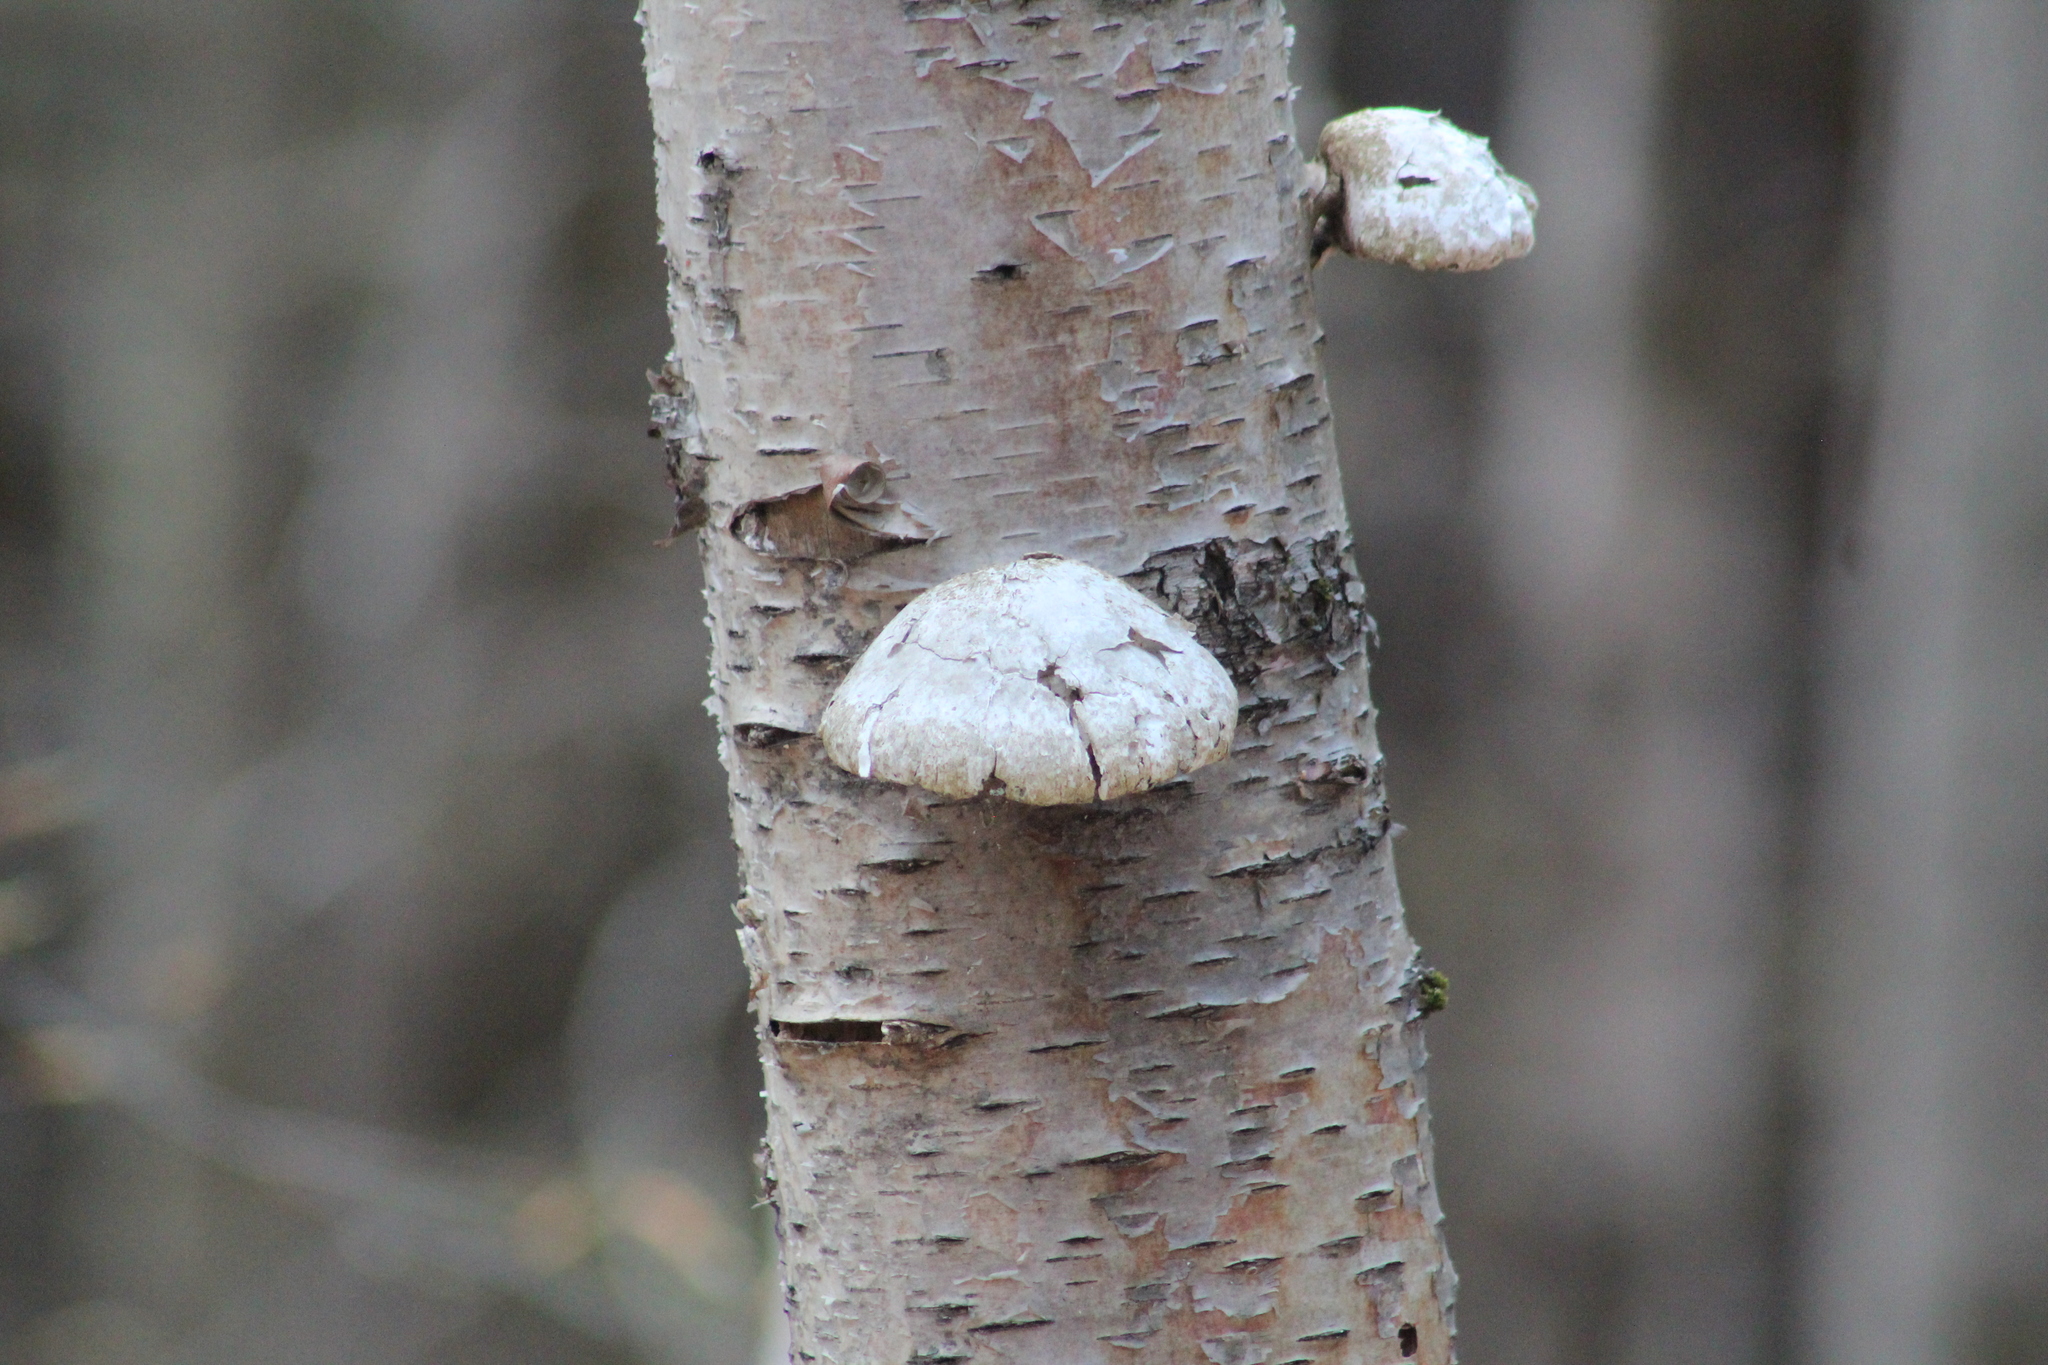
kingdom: Fungi
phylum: Basidiomycota
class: Agaricomycetes
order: Polyporales
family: Fomitopsidaceae
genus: Fomitopsis
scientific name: Fomitopsis betulina
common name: Birch polypore
